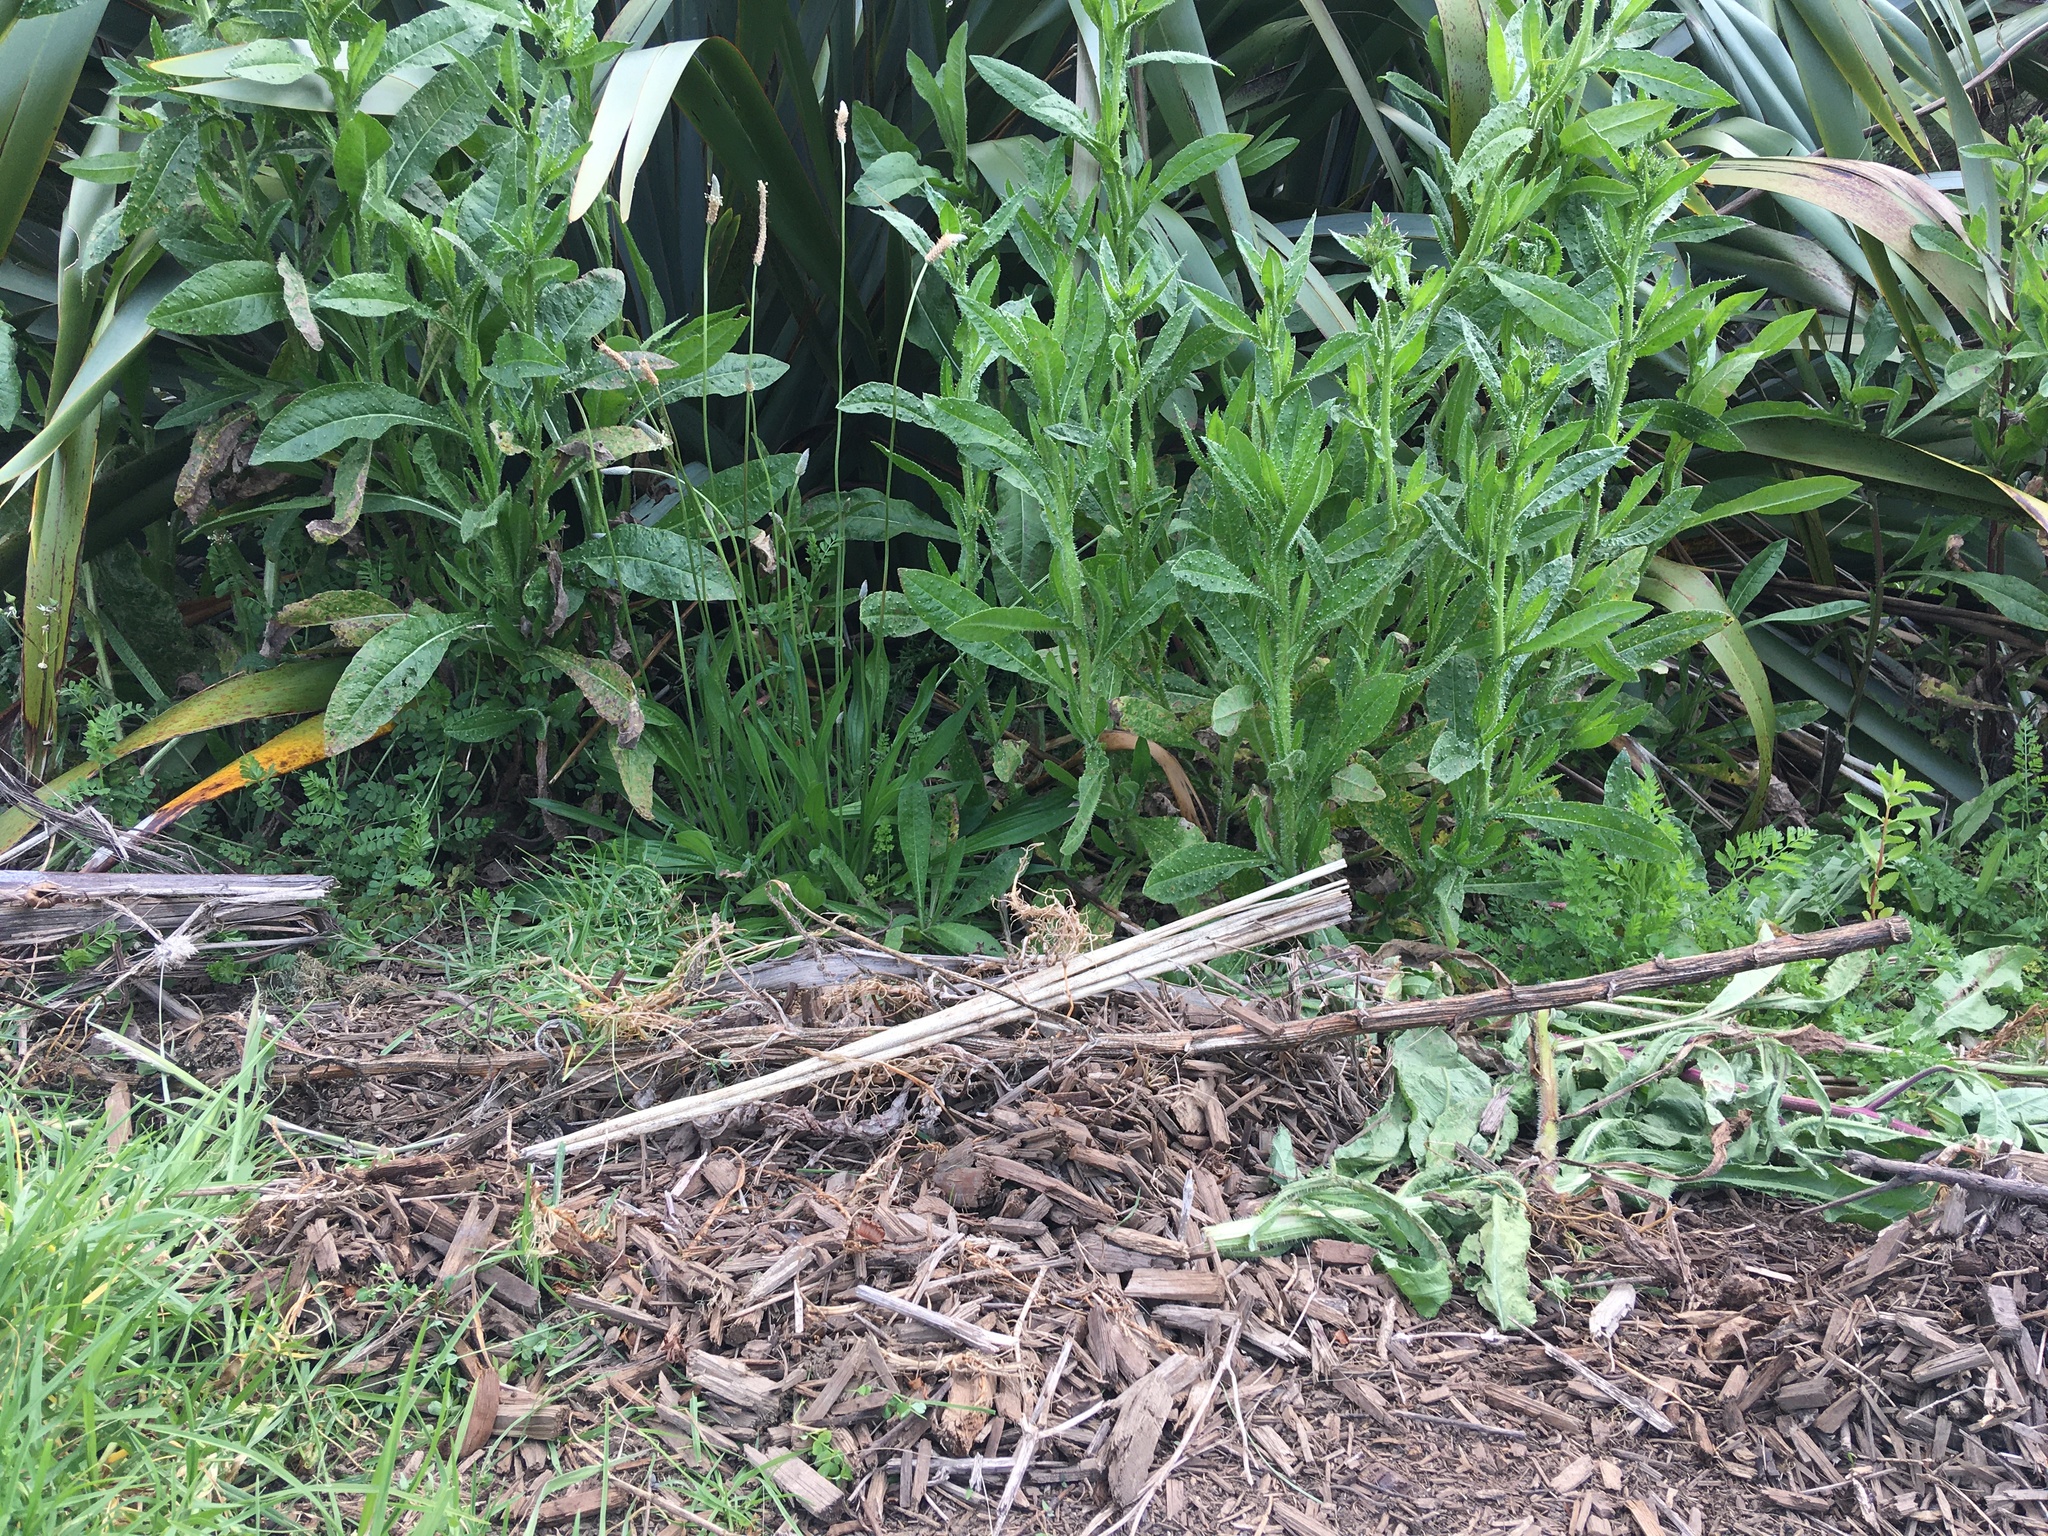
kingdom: Plantae
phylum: Tracheophyta
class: Magnoliopsida
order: Lamiales
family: Plantaginaceae
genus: Plantago
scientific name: Plantago lanceolata
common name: Ribwort plantain
